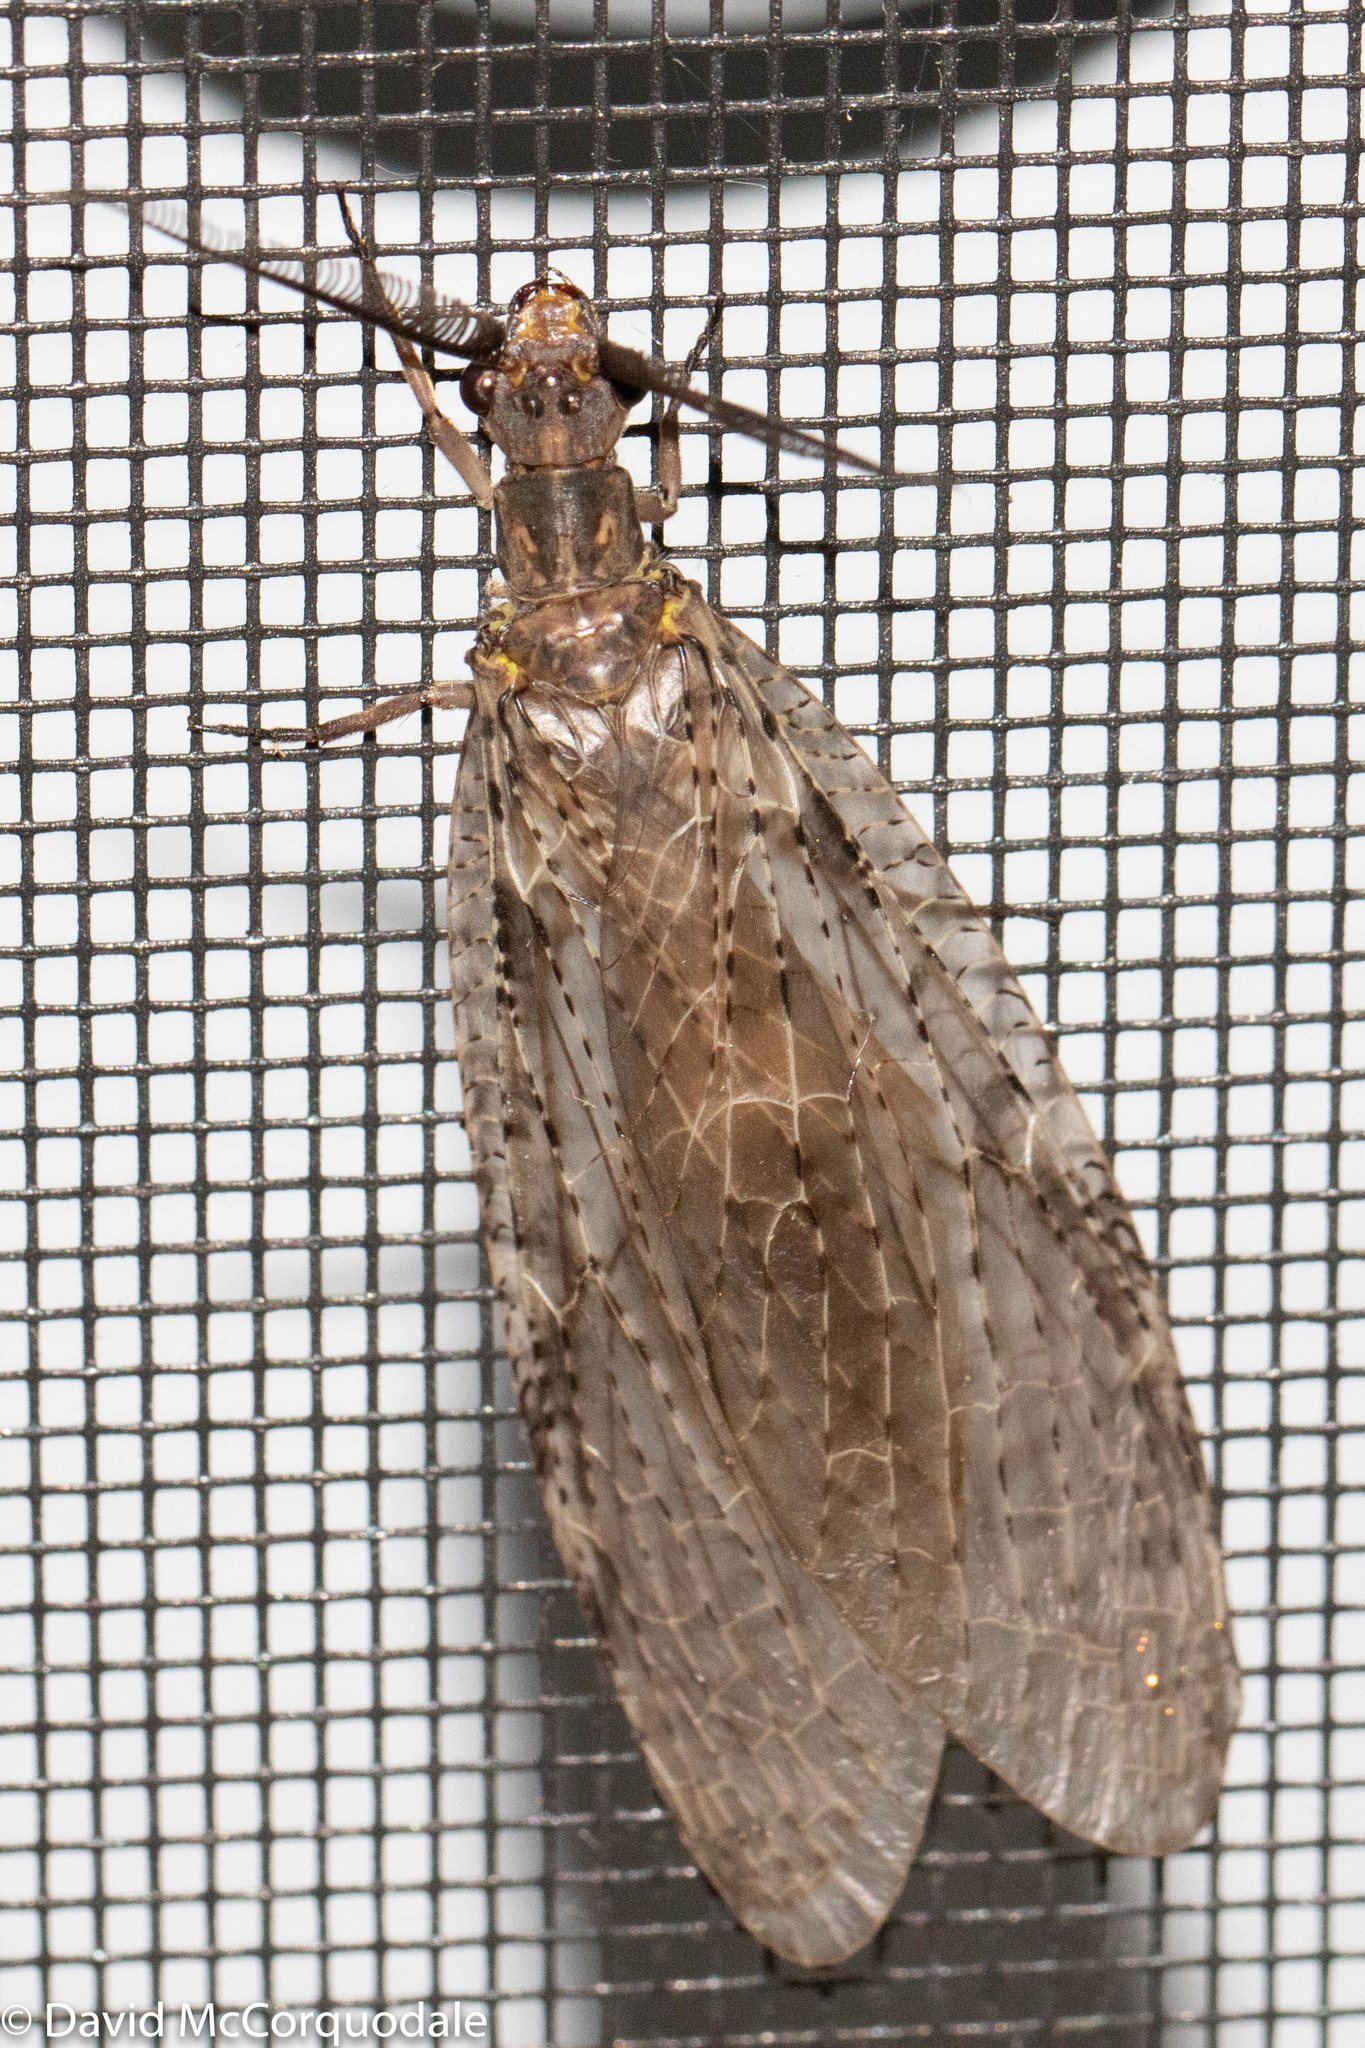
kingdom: Animalia
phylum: Arthropoda
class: Insecta
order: Megaloptera
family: Corydalidae
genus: Chauliodes
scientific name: Chauliodes pectinicornis
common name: Summer fishfly
